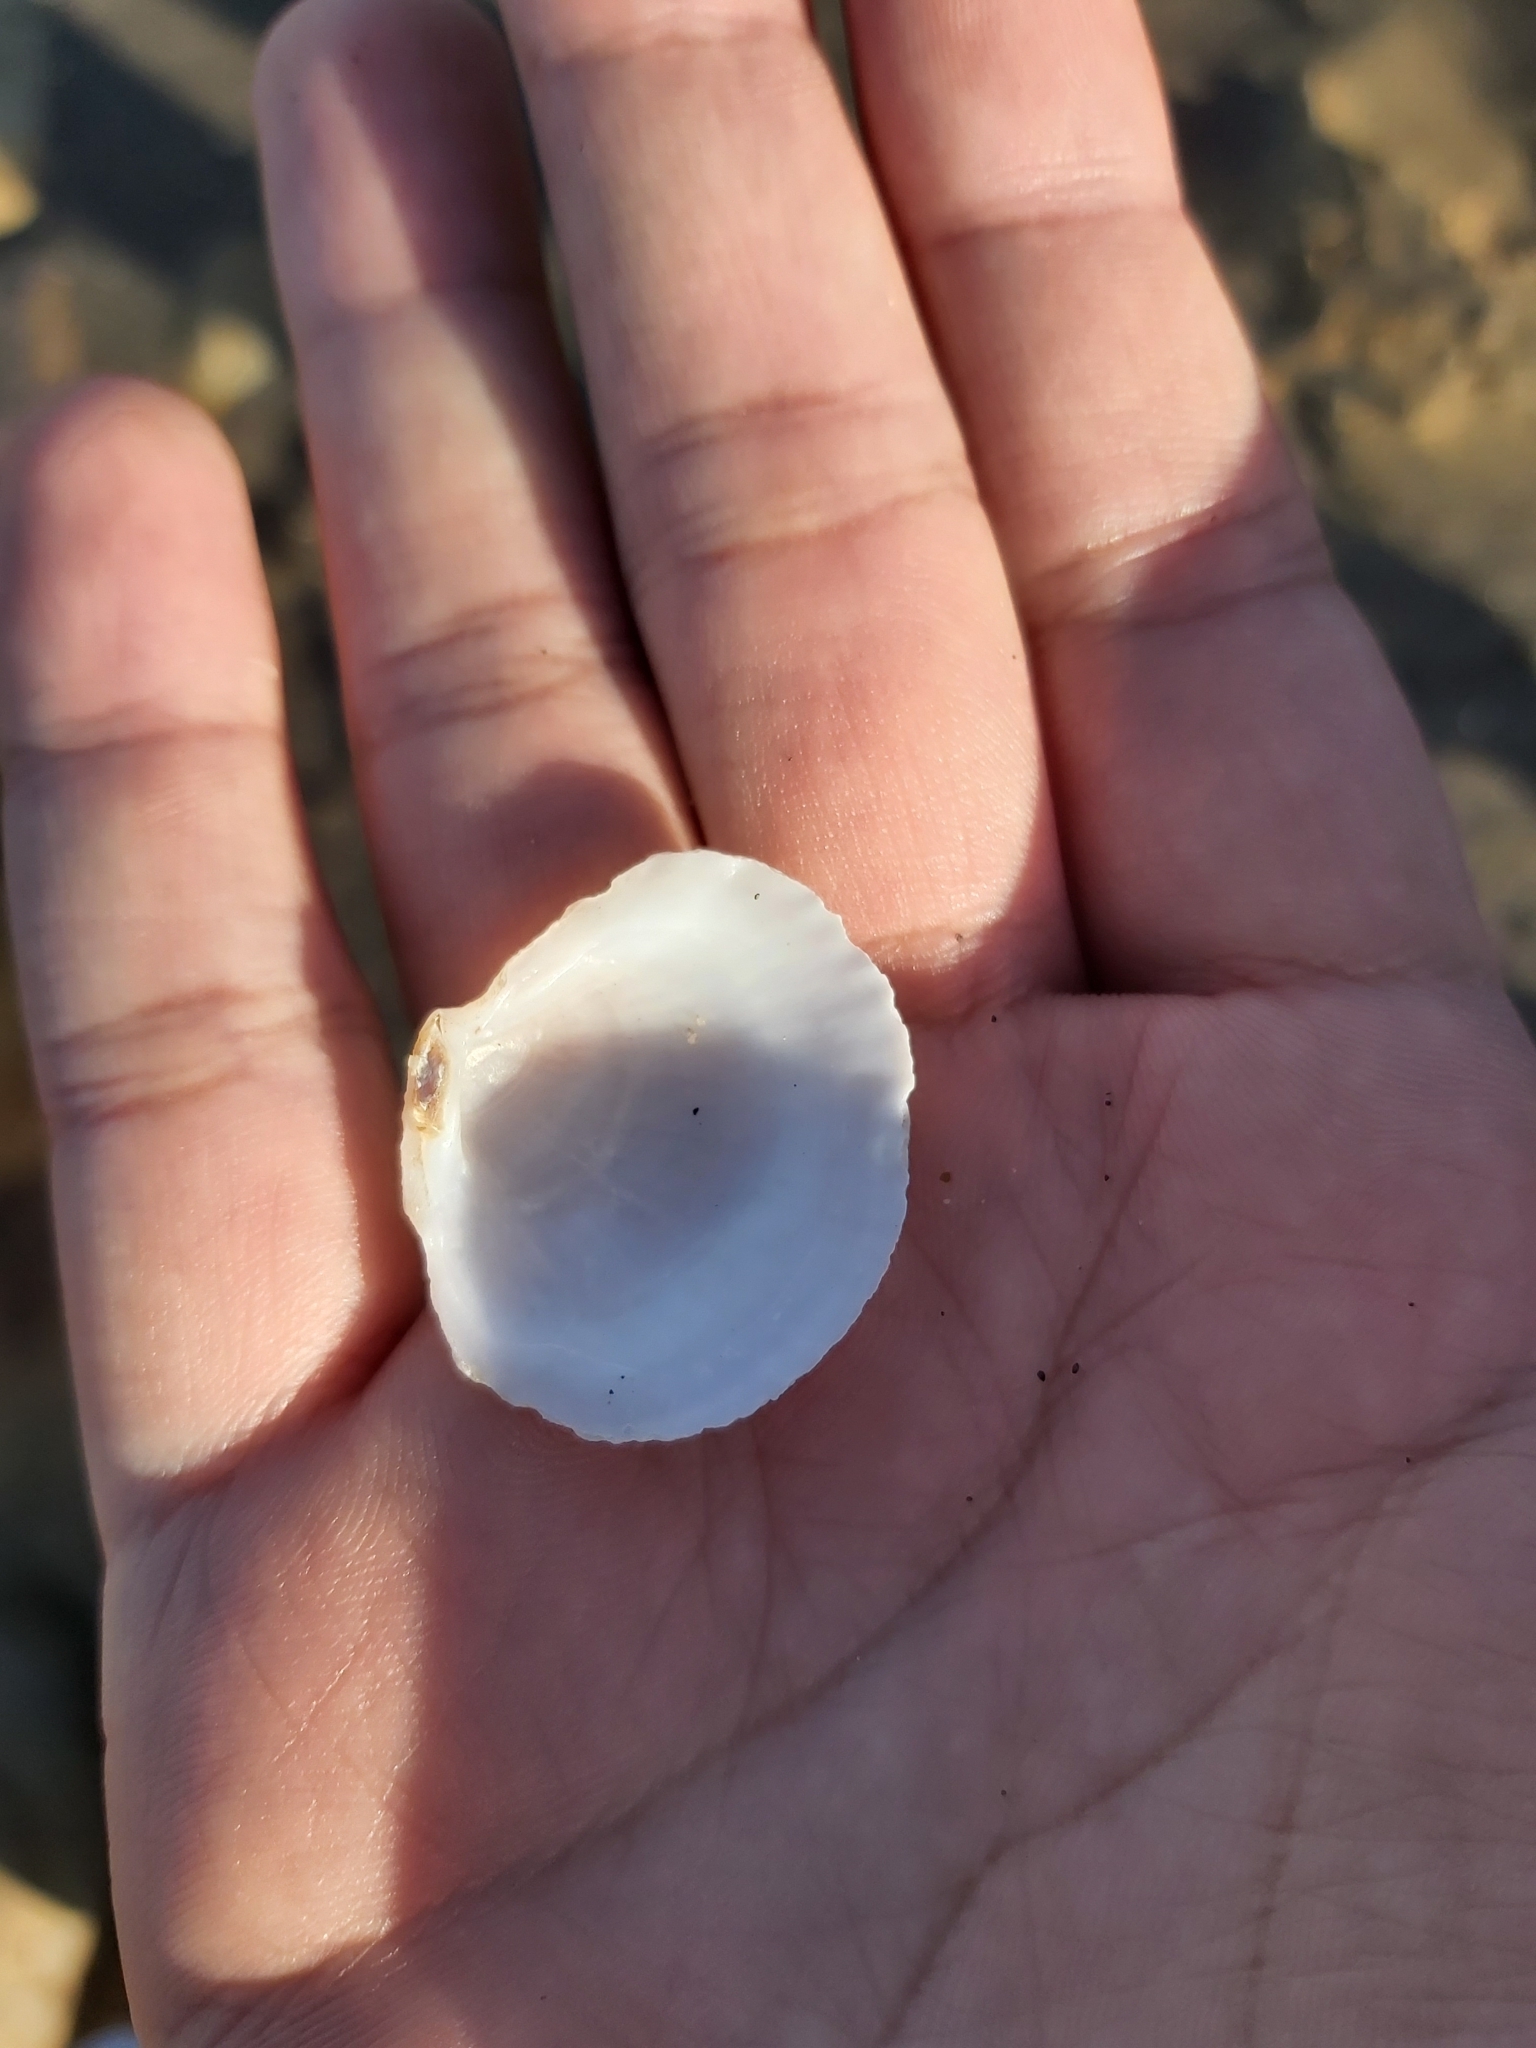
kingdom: Animalia
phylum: Mollusca
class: Bivalvia
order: Lucinida
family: Lucinidae
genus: Codakia
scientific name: Codakia rugifera
